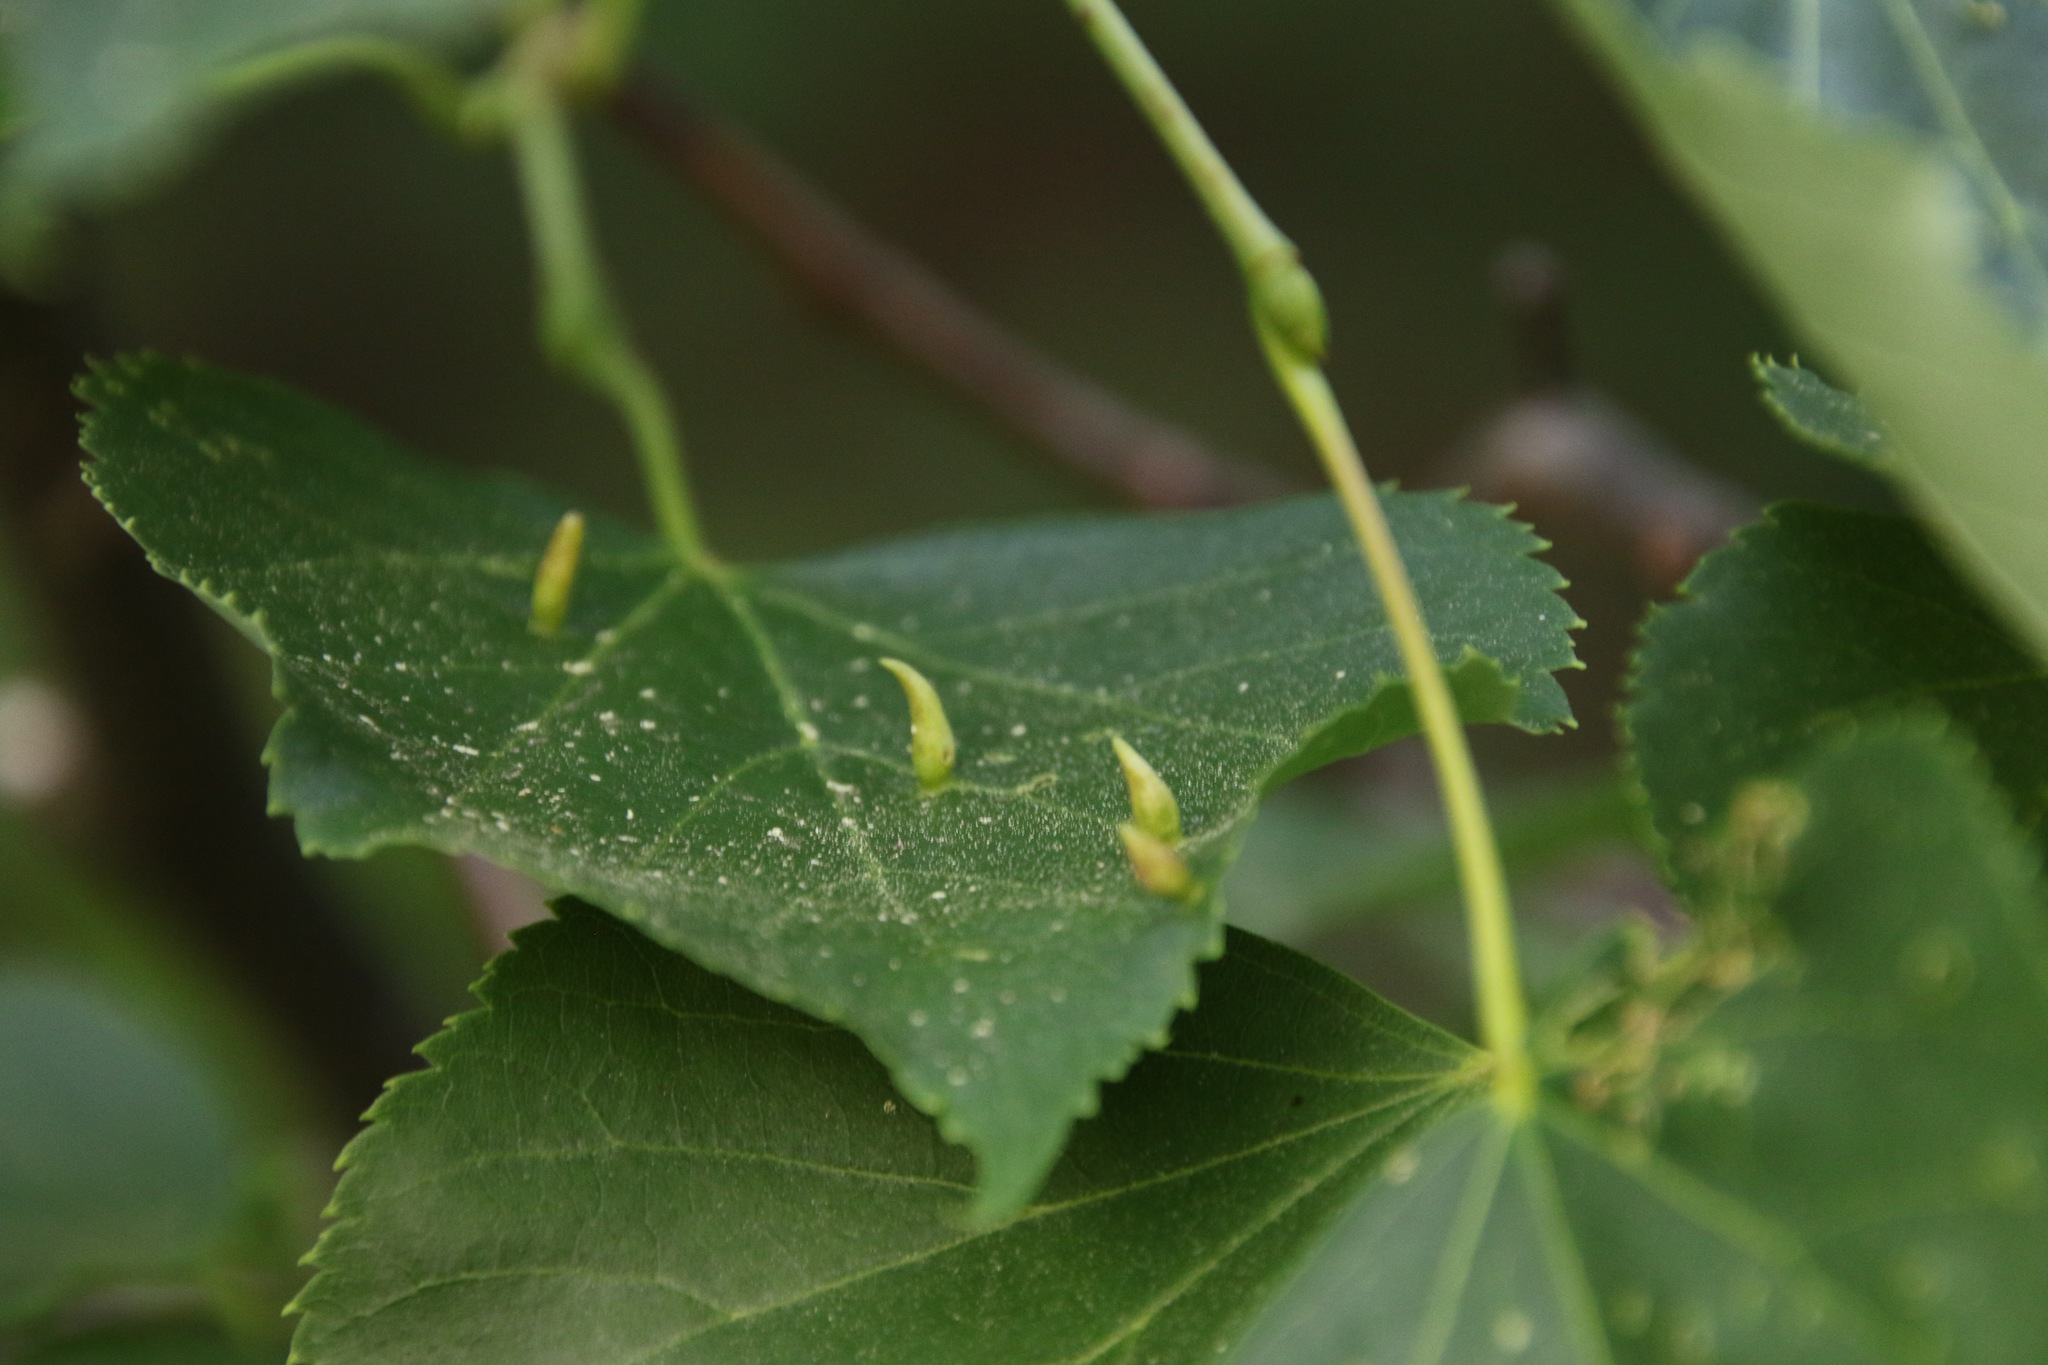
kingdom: Animalia
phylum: Arthropoda
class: Arachnida
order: Trombidiformes
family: Eriophyidae
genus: Eriophyes
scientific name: Eriophyes tiliae
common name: Red nail gall mite
